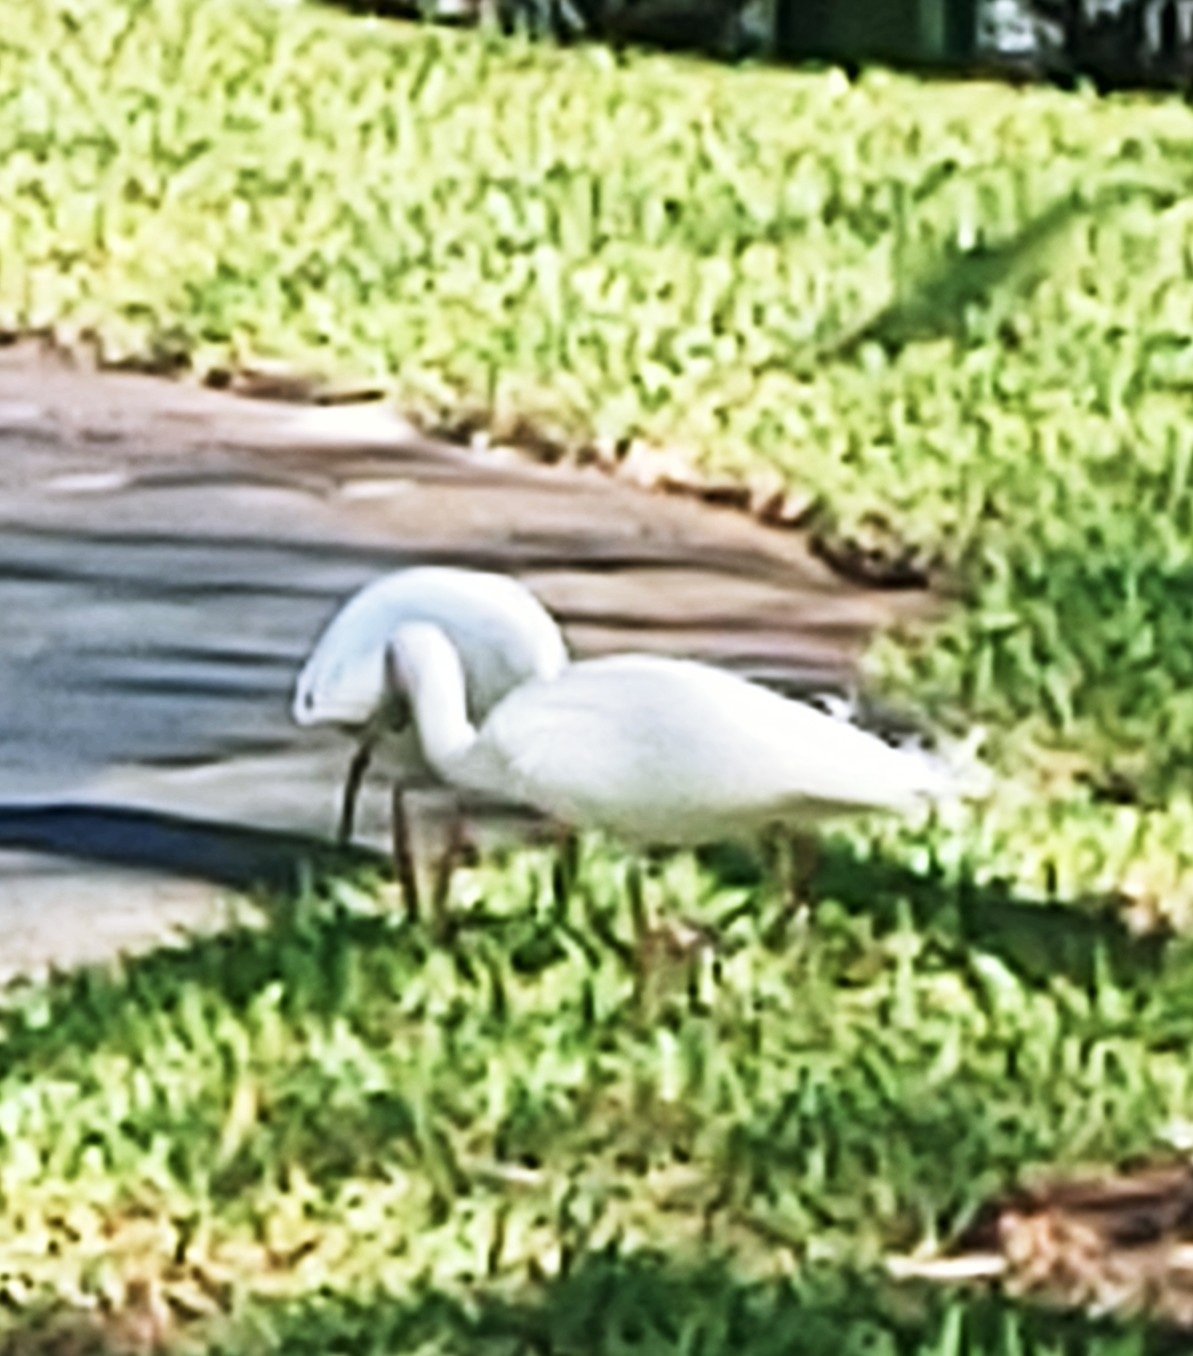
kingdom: Animalia
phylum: Chordata
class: Aves
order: Pelecaniformes
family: Threskiornithidae
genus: Eudocimus
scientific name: Eudocimus albus
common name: White ibis
